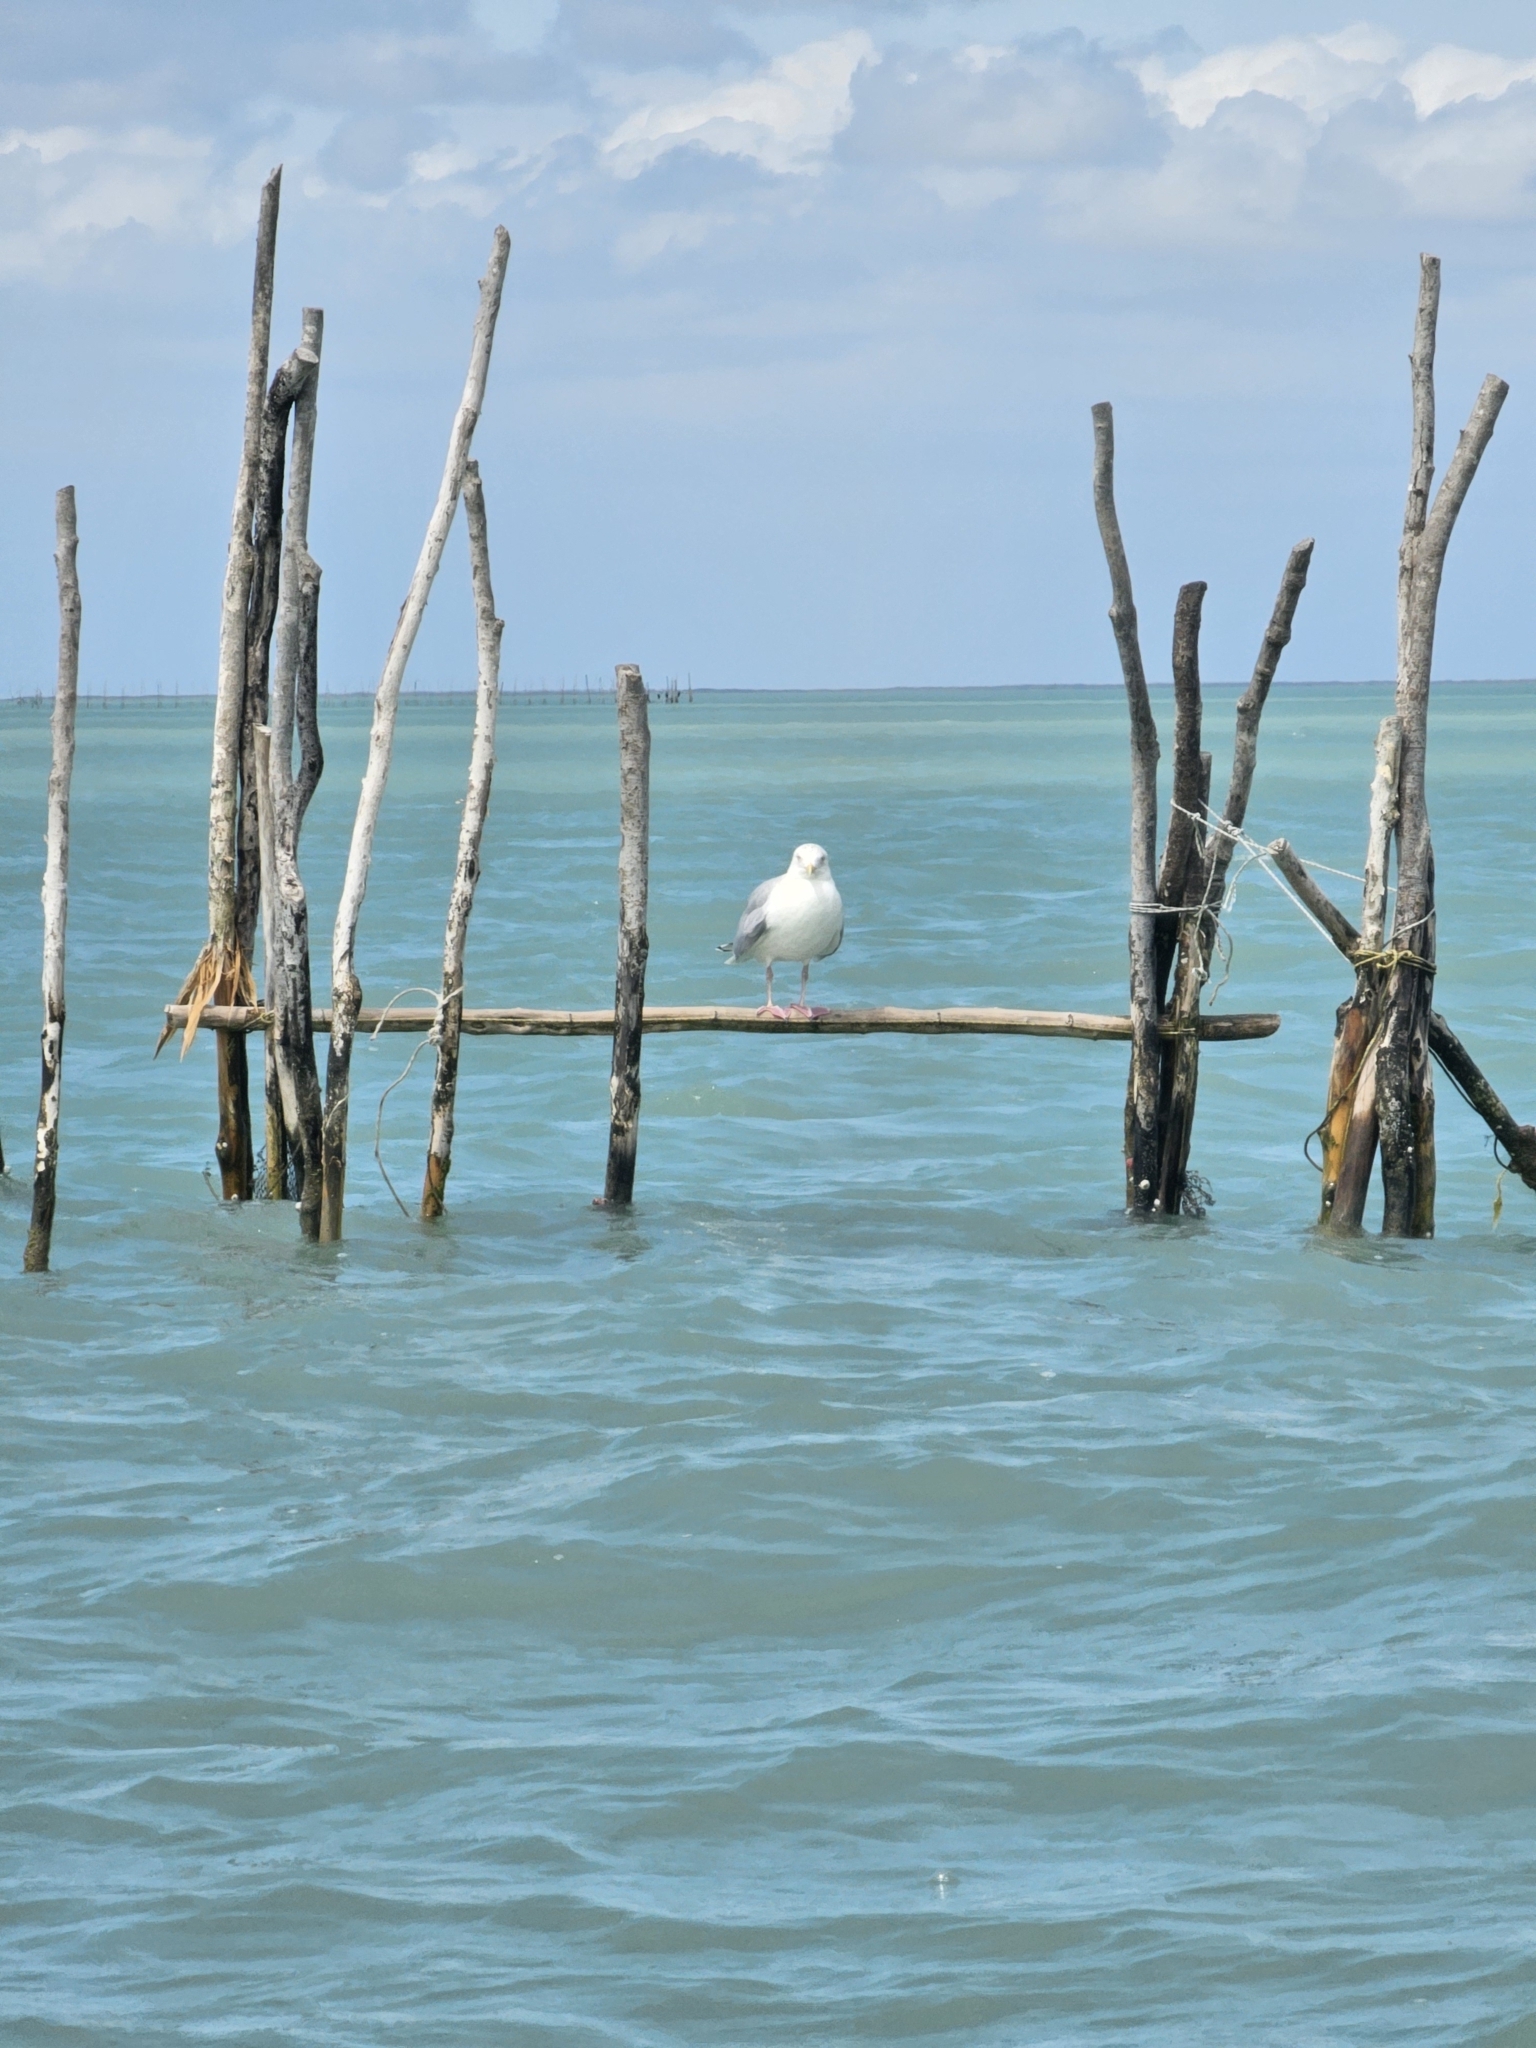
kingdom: Animalia
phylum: Chordata
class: Aves
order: Charadriiformes
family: Laridae
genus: Larus
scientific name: Larus argentatus
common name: Herring gull
